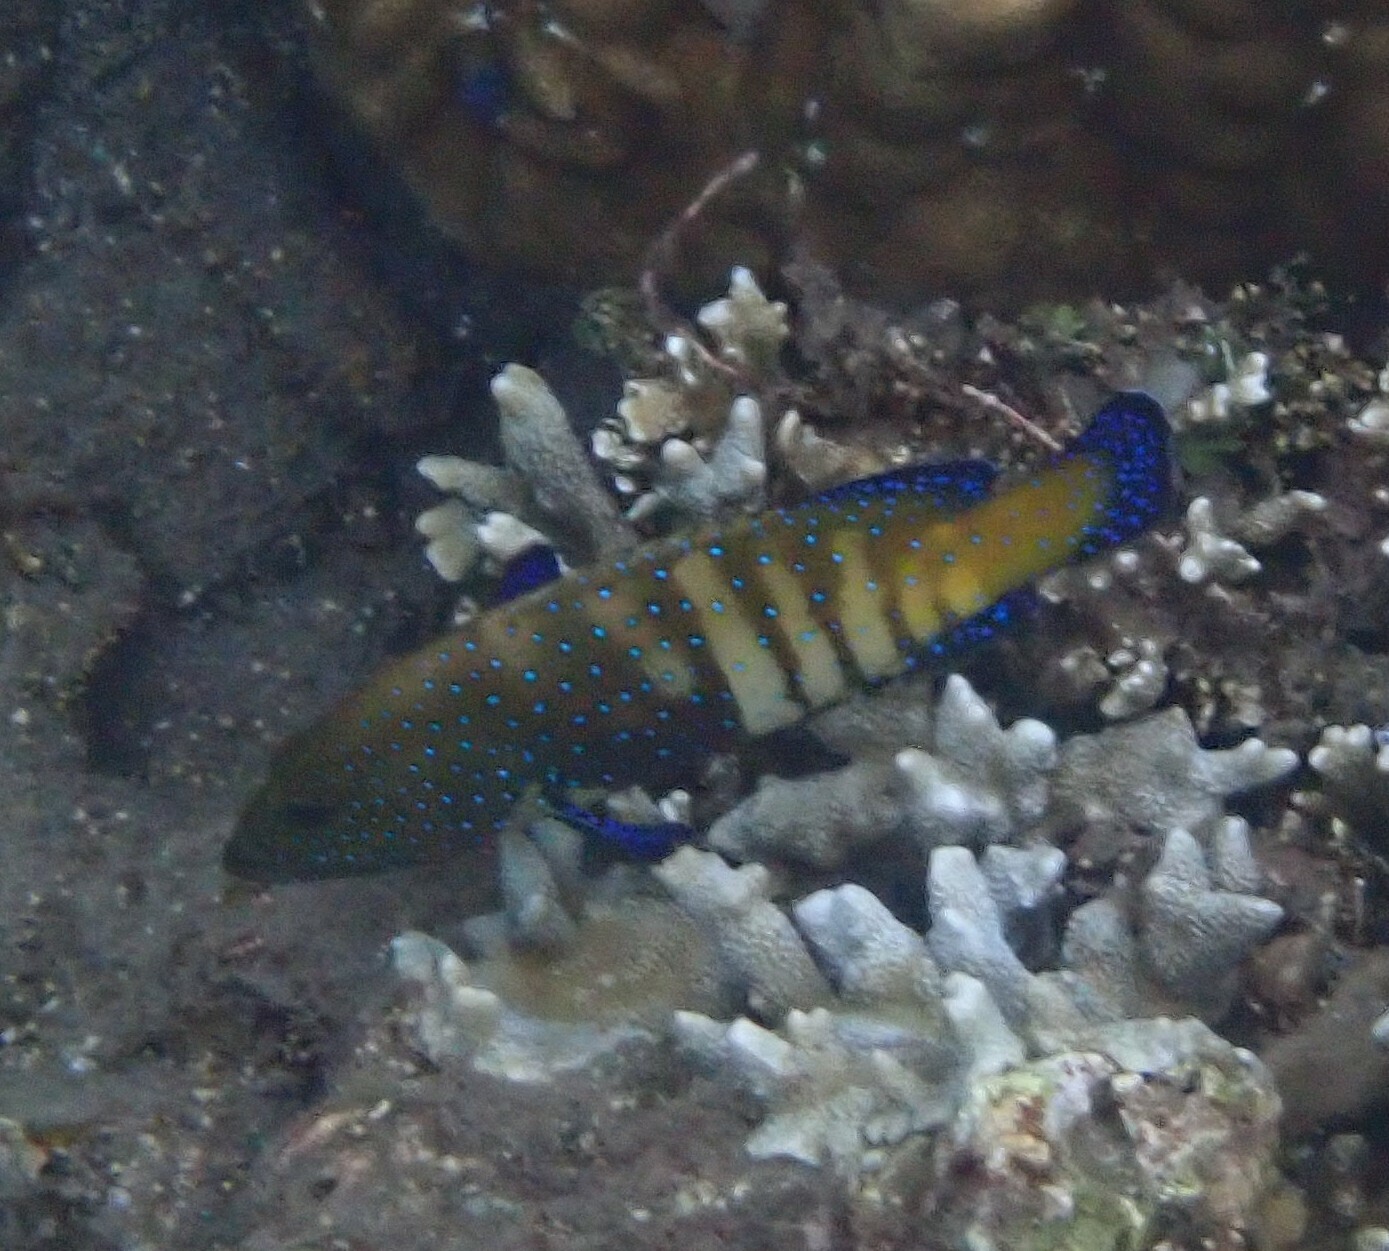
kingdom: Animalia
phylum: Chordata
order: Perciformes
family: Serranidae
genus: Cephalopholis
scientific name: Cephalopholis argus
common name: Peacock grouper
